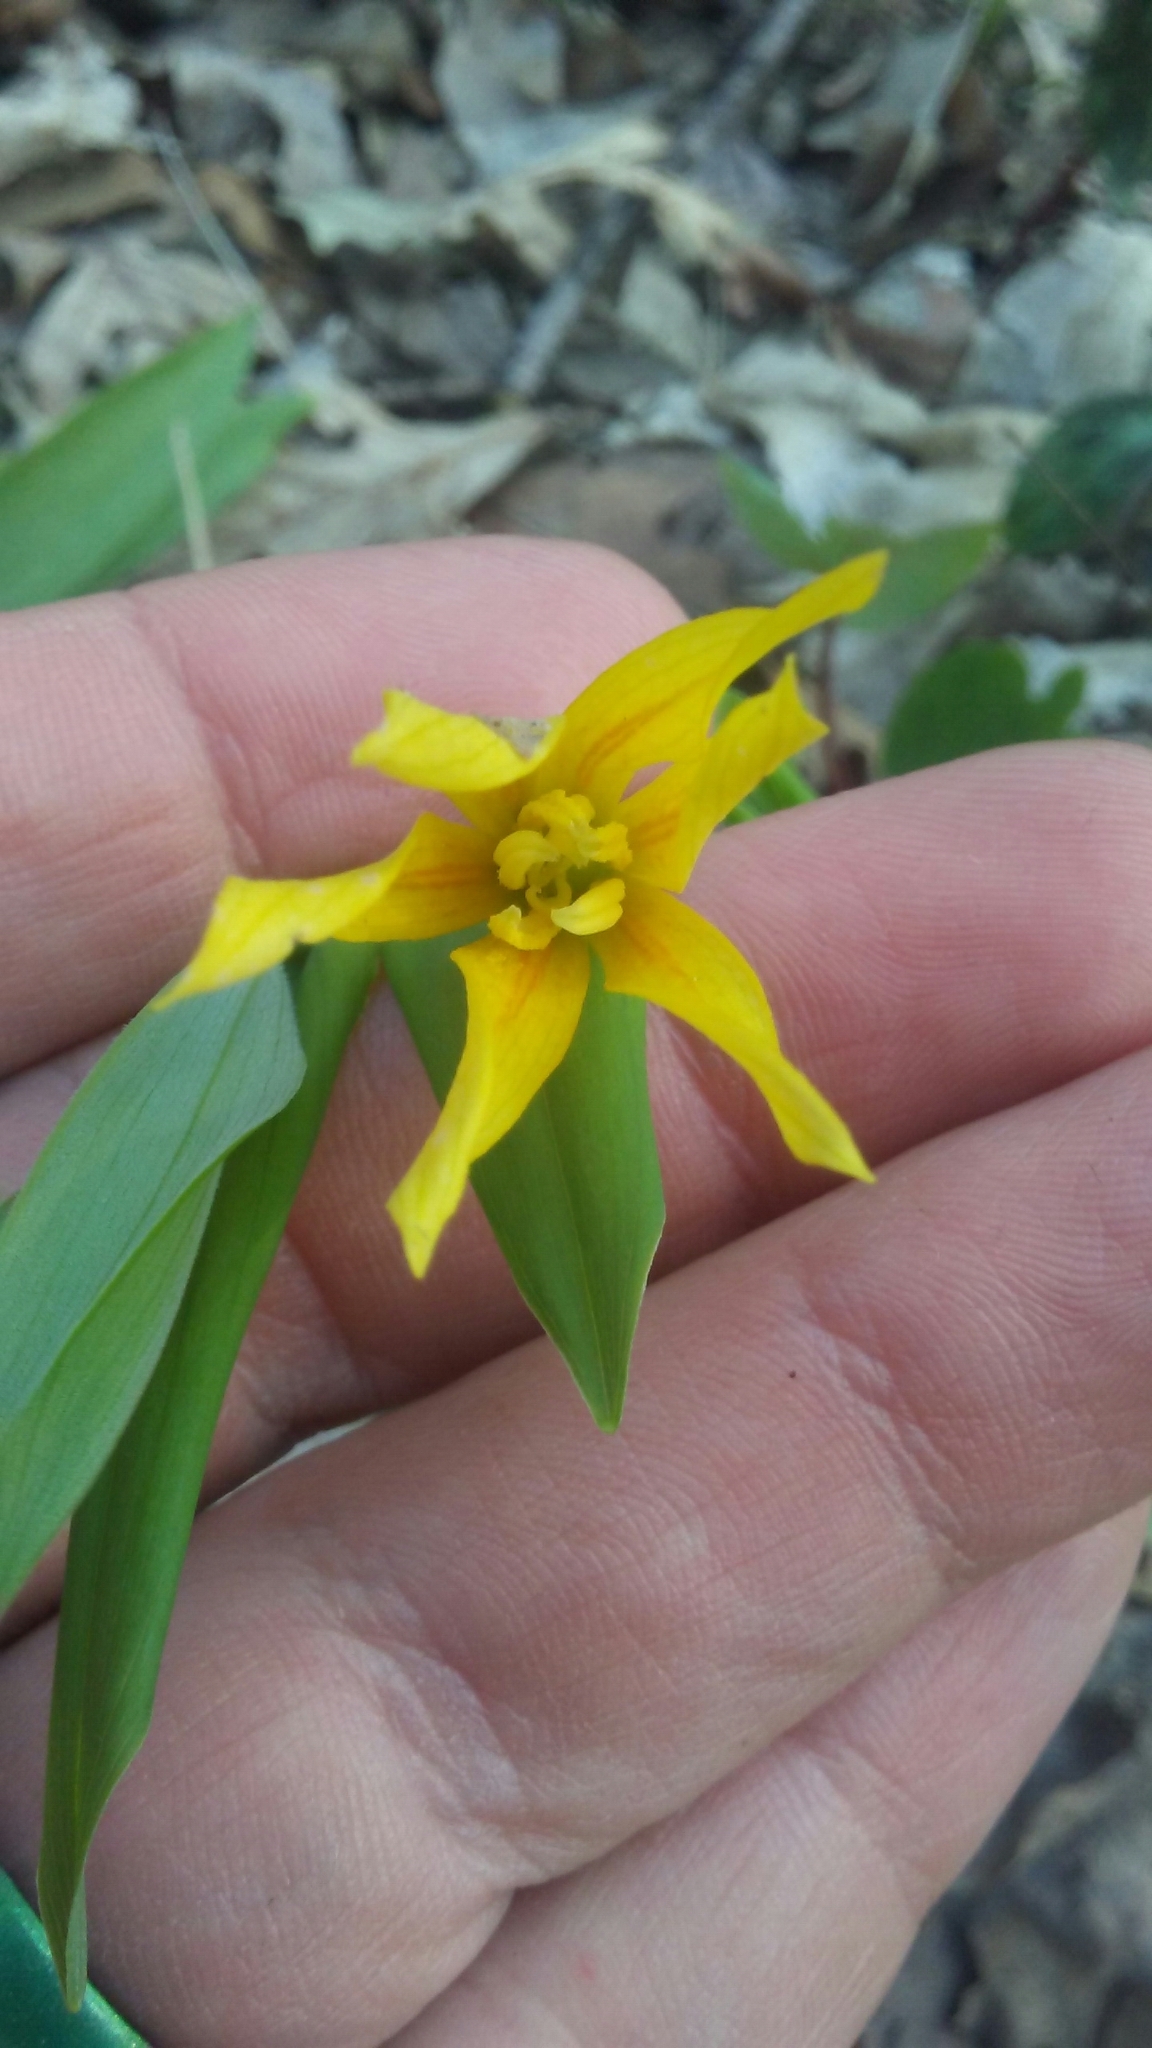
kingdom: Plantae
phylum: Tracheophyta
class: Liliopsida
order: Liliales
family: Colchicaceae
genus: Uvularia
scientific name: Uvularia grandiflora
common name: Bellwort
